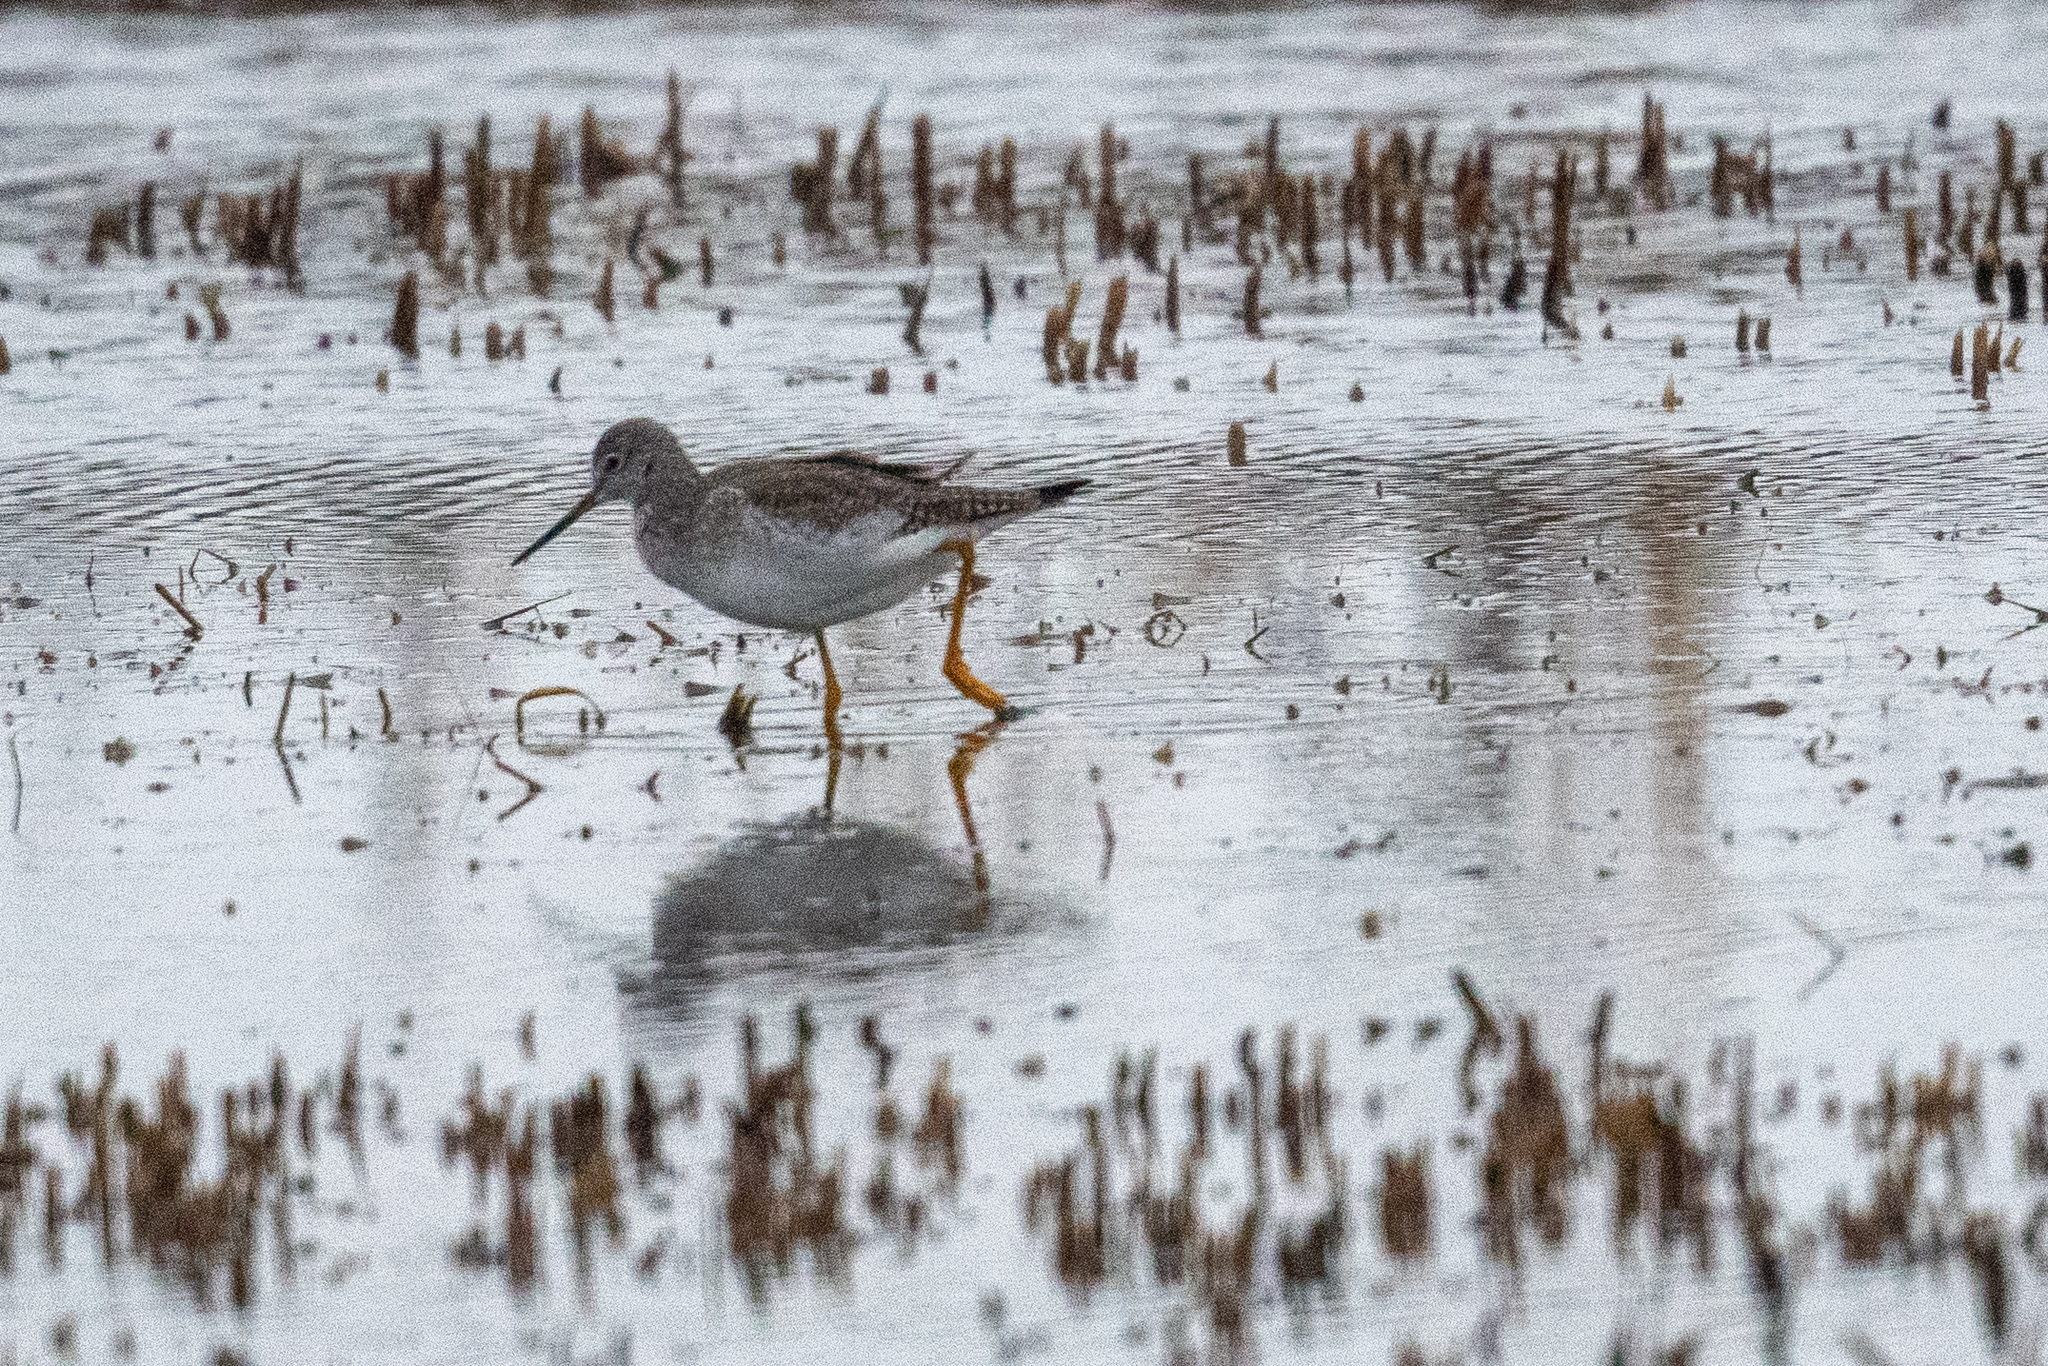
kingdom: Animalia
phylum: Chordata
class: Aves
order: Charadriiformes
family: Scolopacidae
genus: Tringa
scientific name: Tringa melanoleuca
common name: Greater yellowlegs
